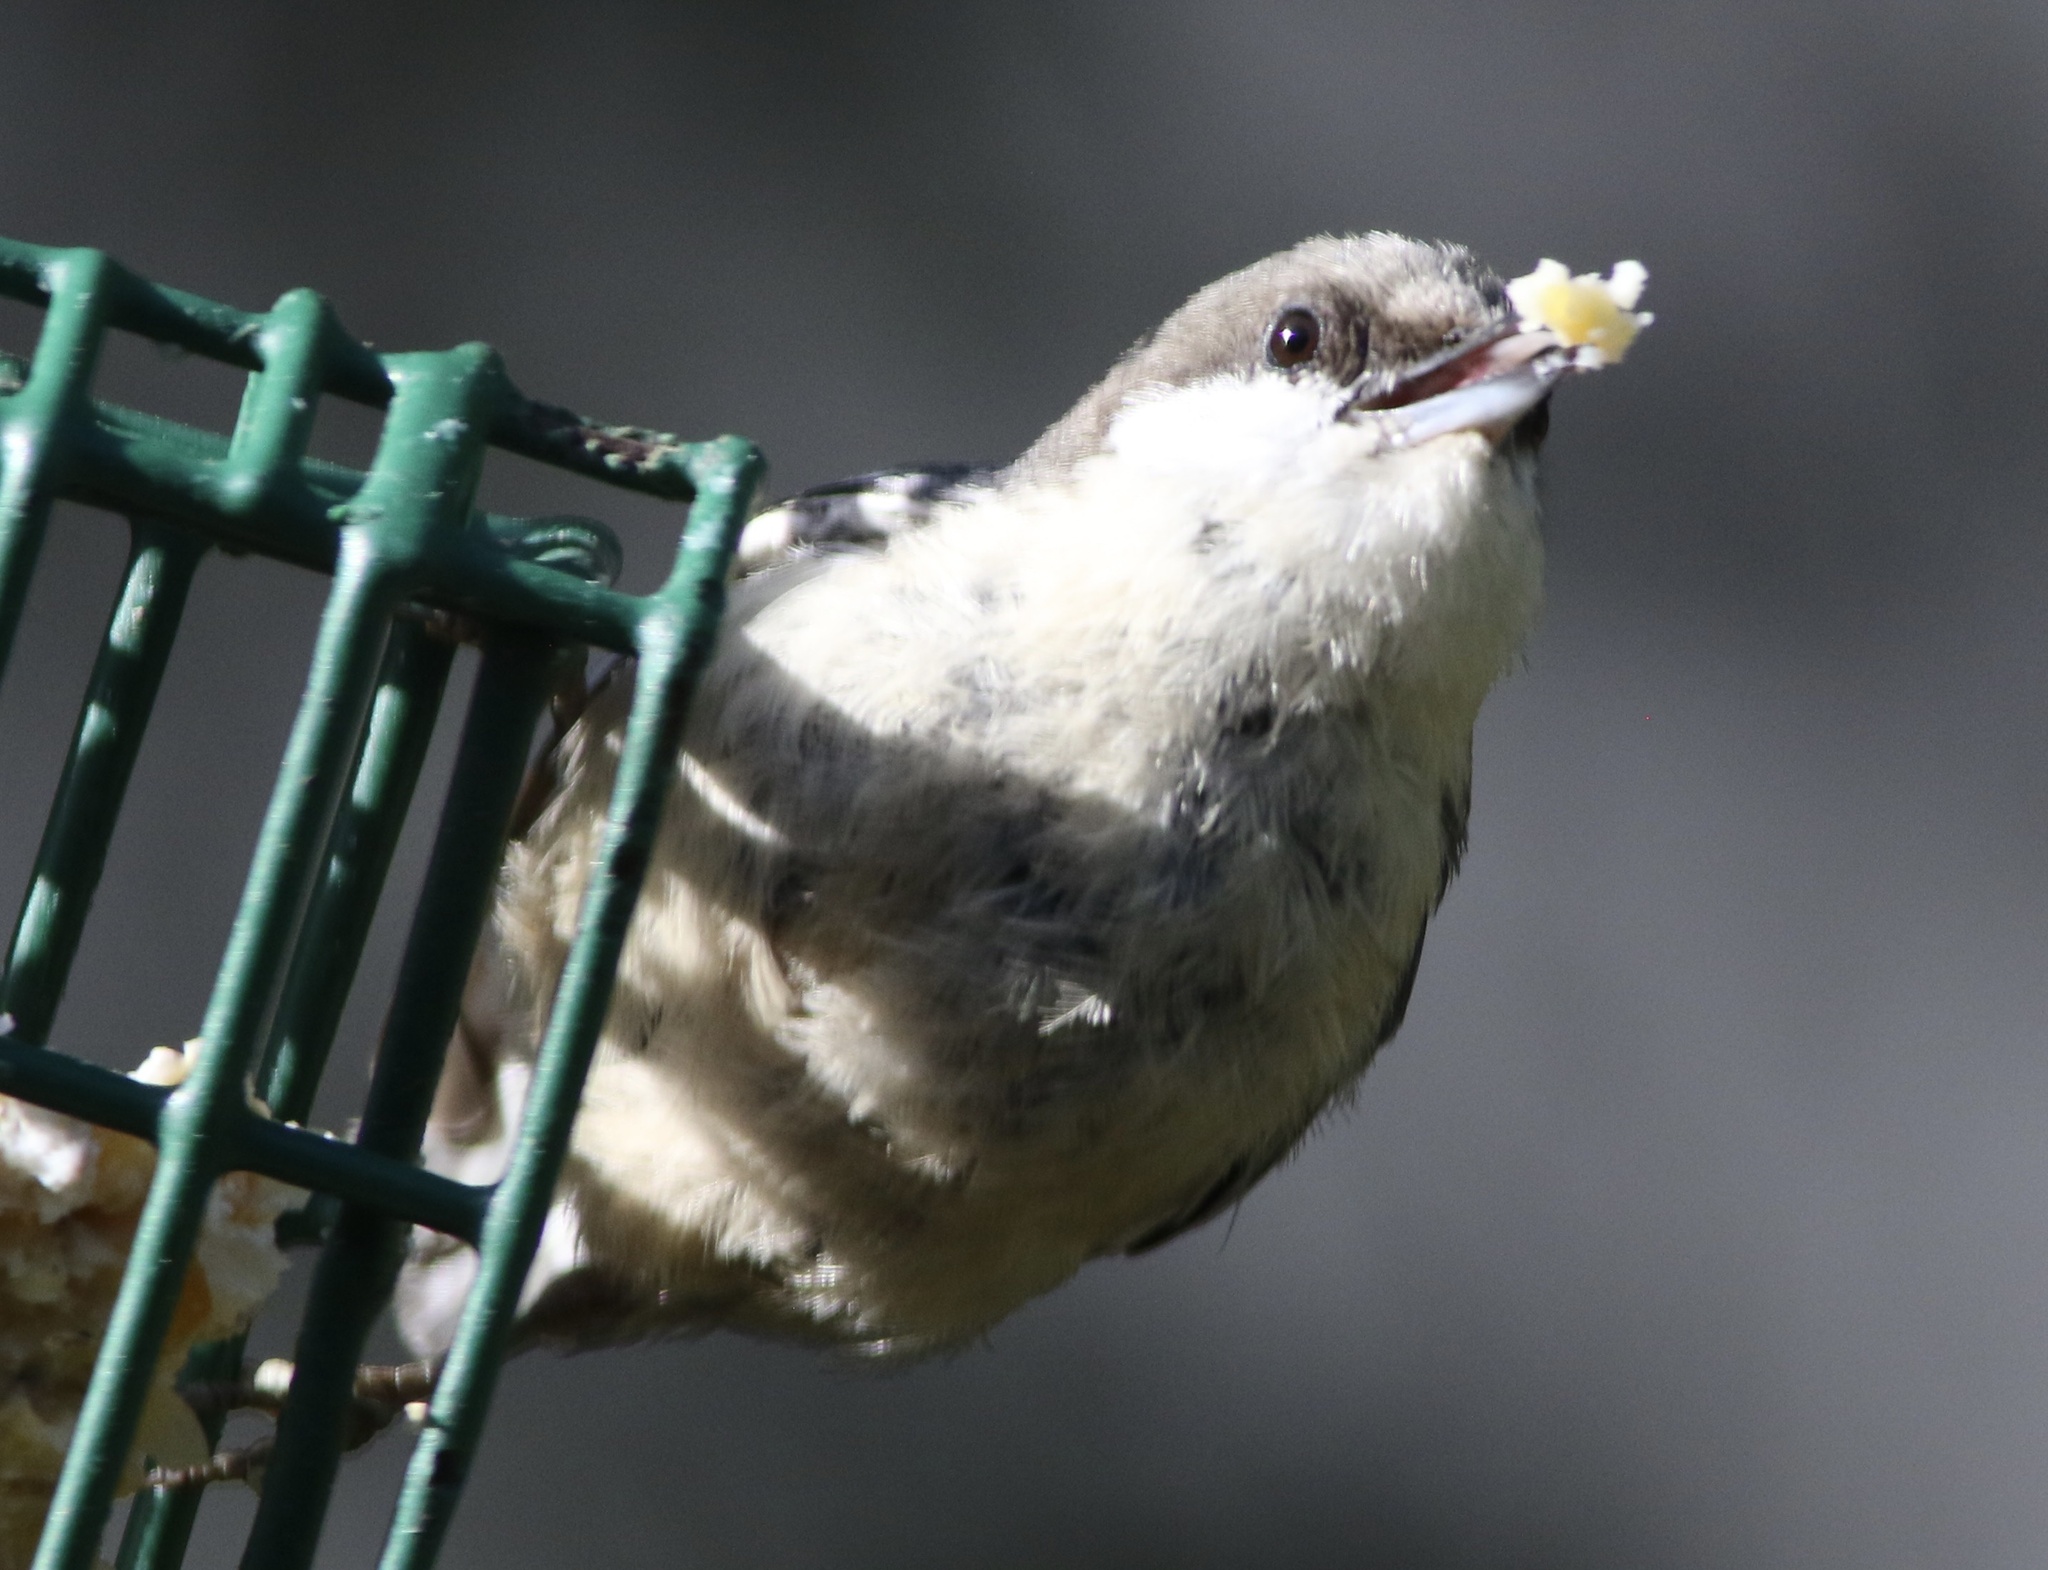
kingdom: Animalia
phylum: Chordata
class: Aves
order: Passeriformes
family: Sittidae
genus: Sitta
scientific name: Sitta pygmaea
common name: Pygmy nuthatch
